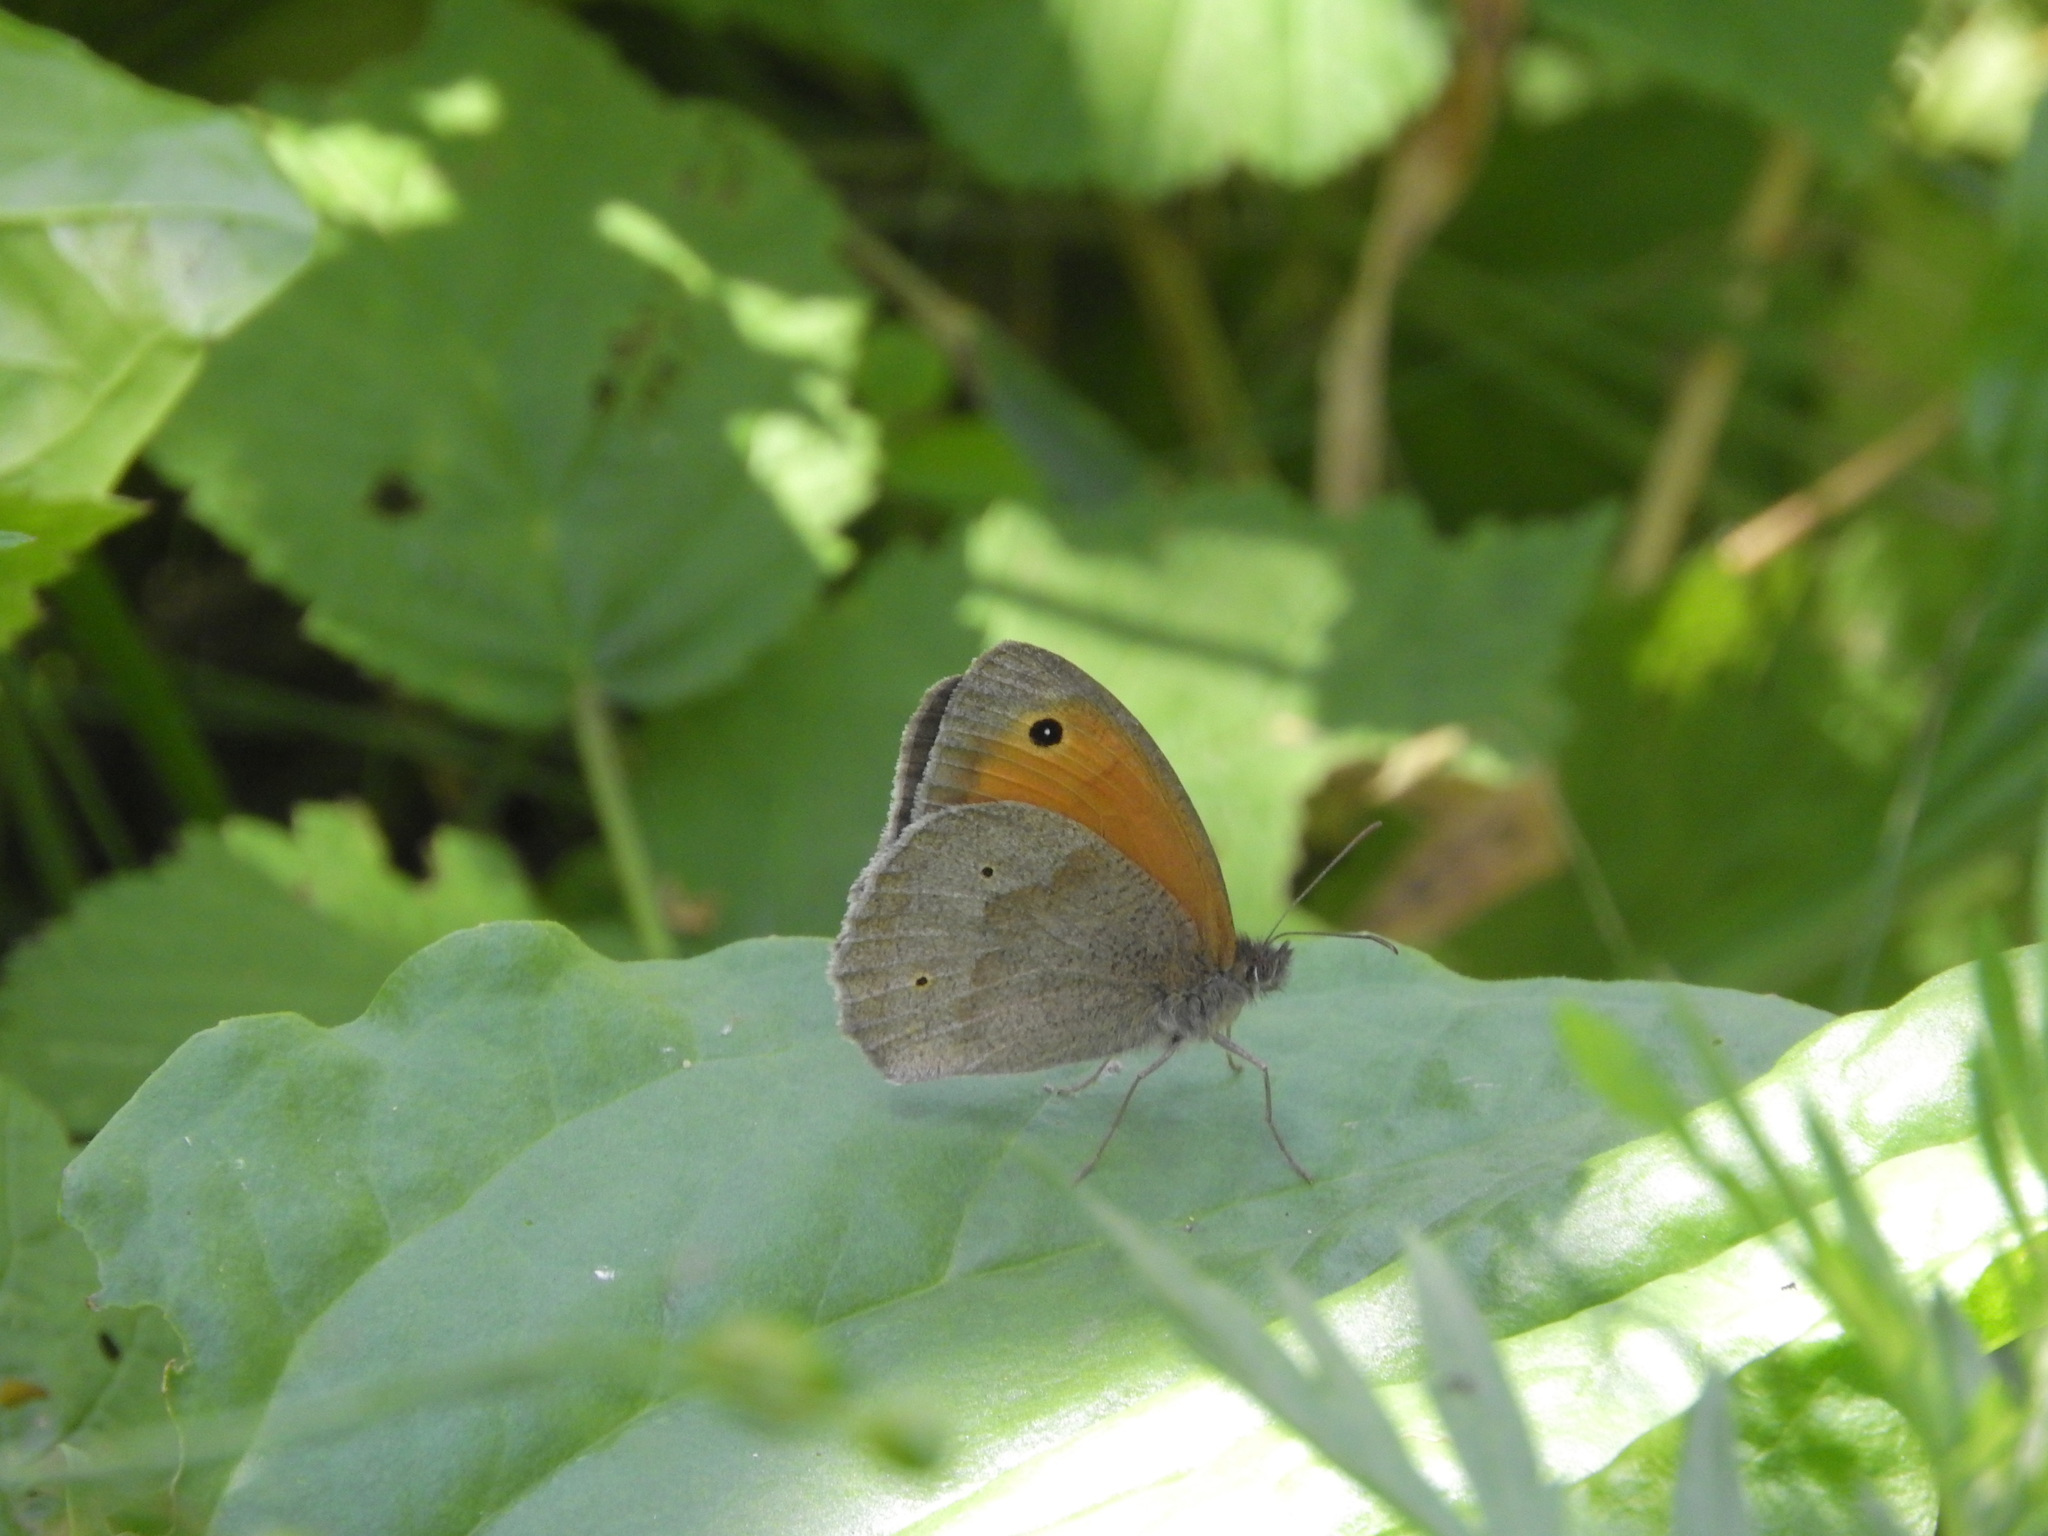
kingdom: Animalia
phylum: Arthropoda
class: Insecta
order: Lepidoptera
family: Nymphalidae
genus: Maniola
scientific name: Maniola jurtina
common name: Meadow brown
